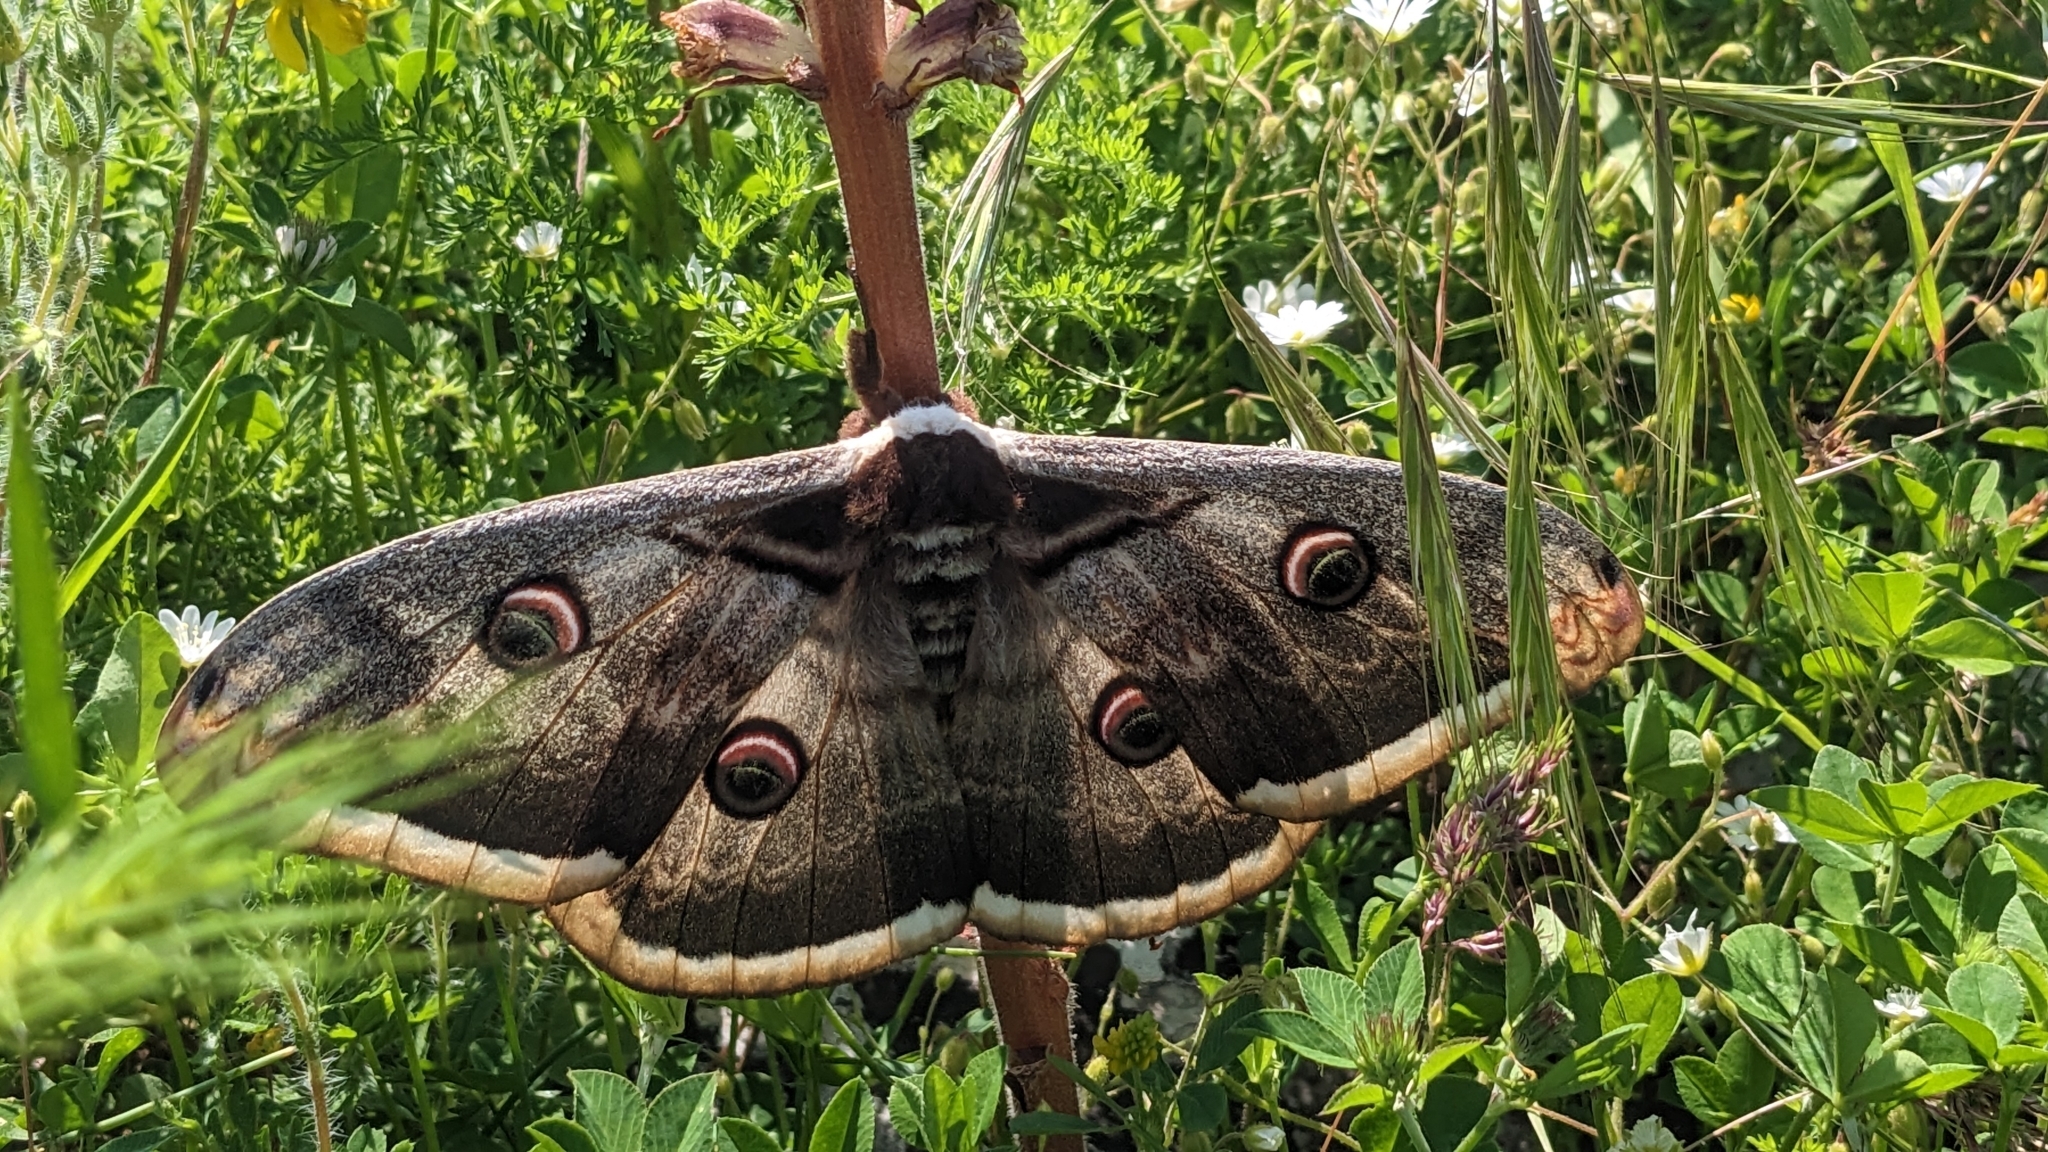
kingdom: Animalia
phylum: Arthropoda
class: Insecta
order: Lepidoptera
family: Saturniidae
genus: Saturnia
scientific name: Saturnia pyri
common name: Great peacock moth
